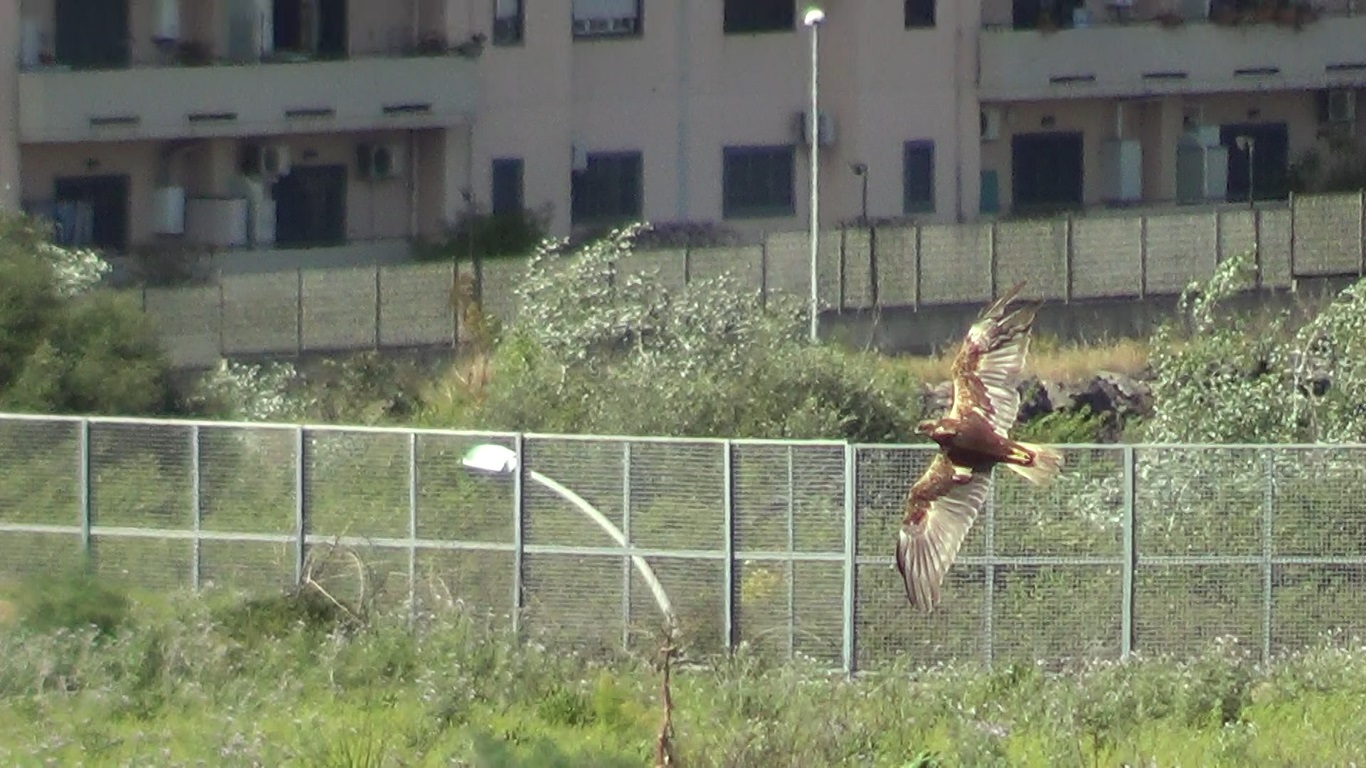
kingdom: Animalia
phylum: Chordata
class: Aves
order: Accipitriformes
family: Accipitridae
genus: Circus
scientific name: Circus aeruginosus
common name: Western marsh harrier
